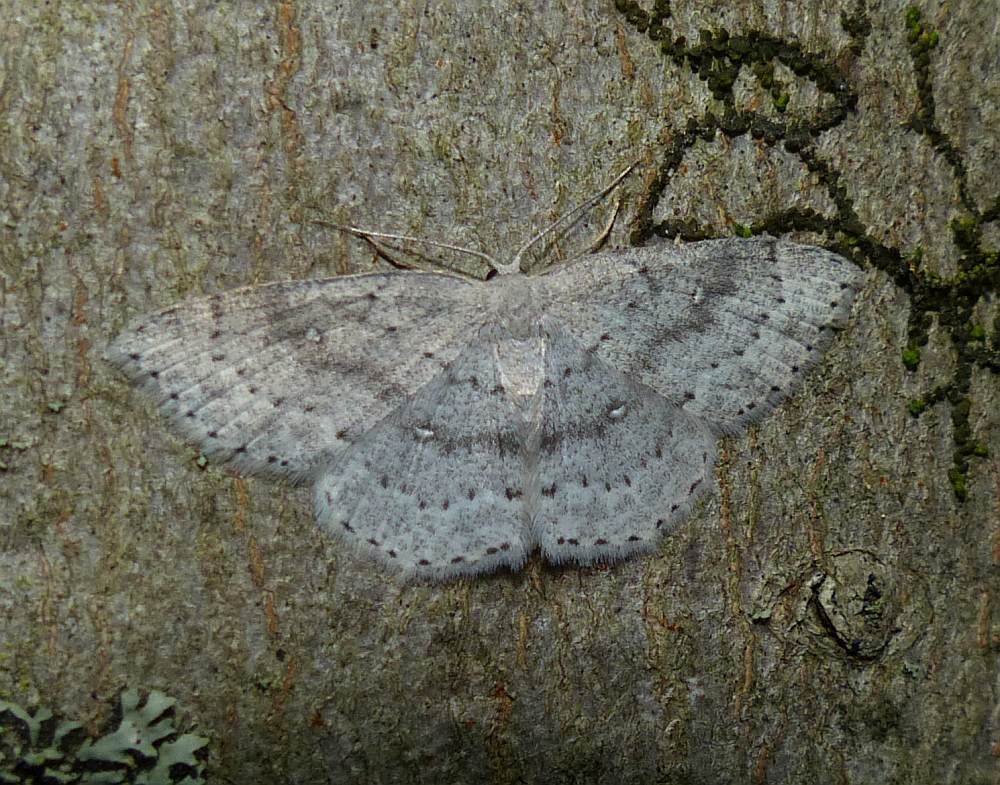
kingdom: Animalia
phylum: Arthropoda
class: Insecta
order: Lepidoptera
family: Geometridae
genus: Cyclophora
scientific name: Cyclophora pendulinaria
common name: Sweet fern geometer
